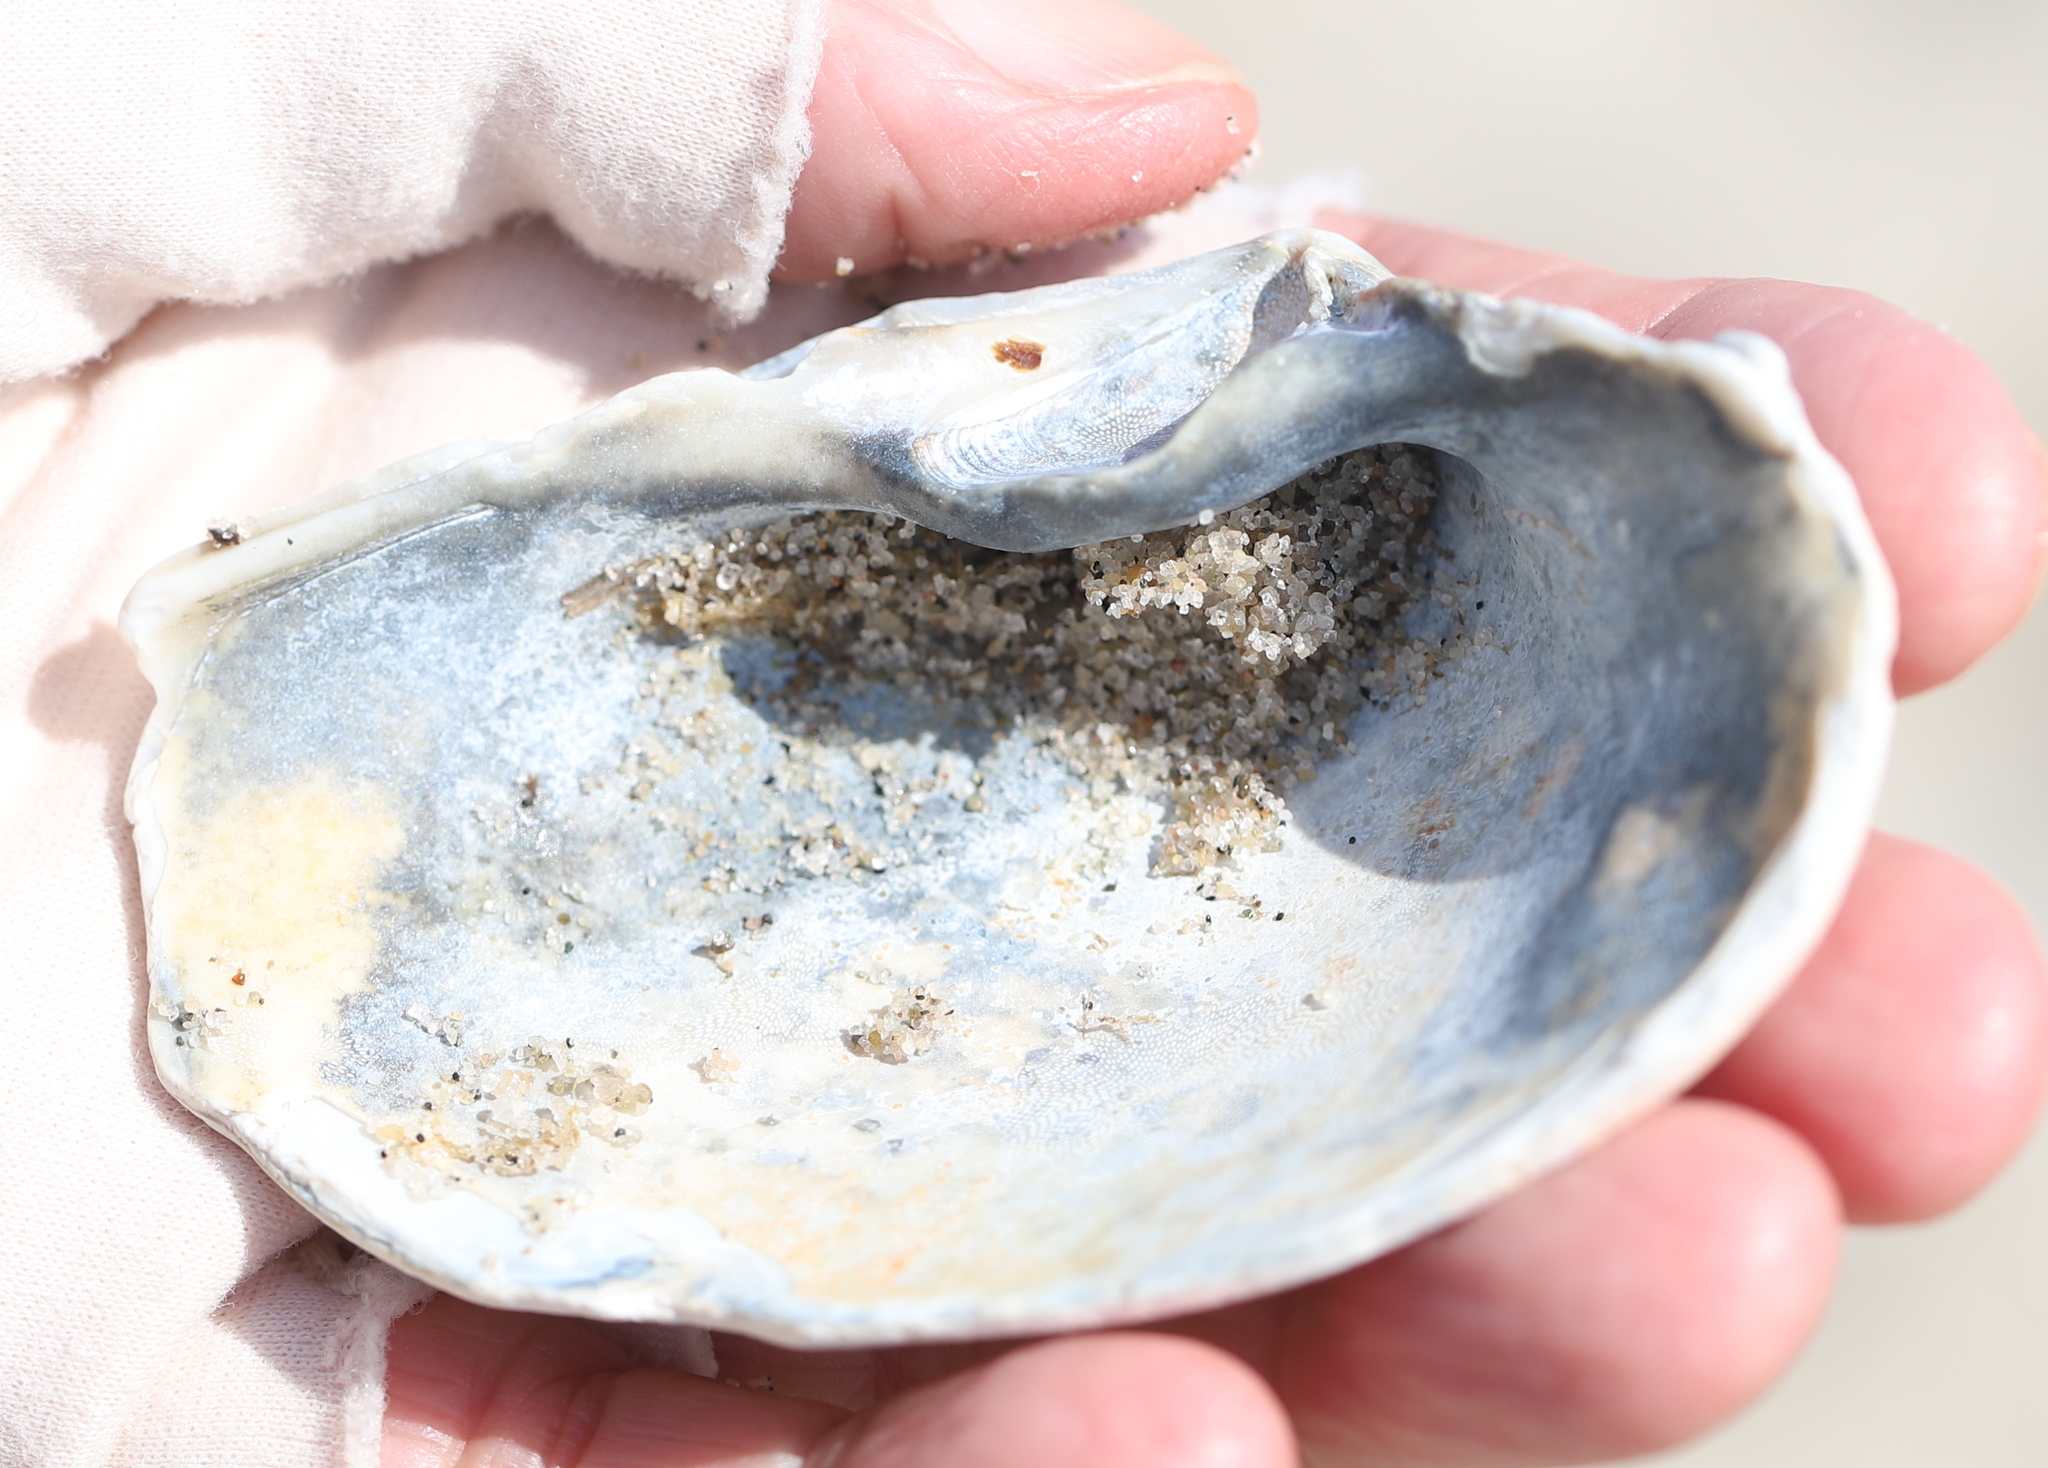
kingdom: Animalia
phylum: Mollusca
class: Bivalvia
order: Venerida
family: Mactridae
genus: Spisula
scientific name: Spisula solidissima
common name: Atlantic surf clam
